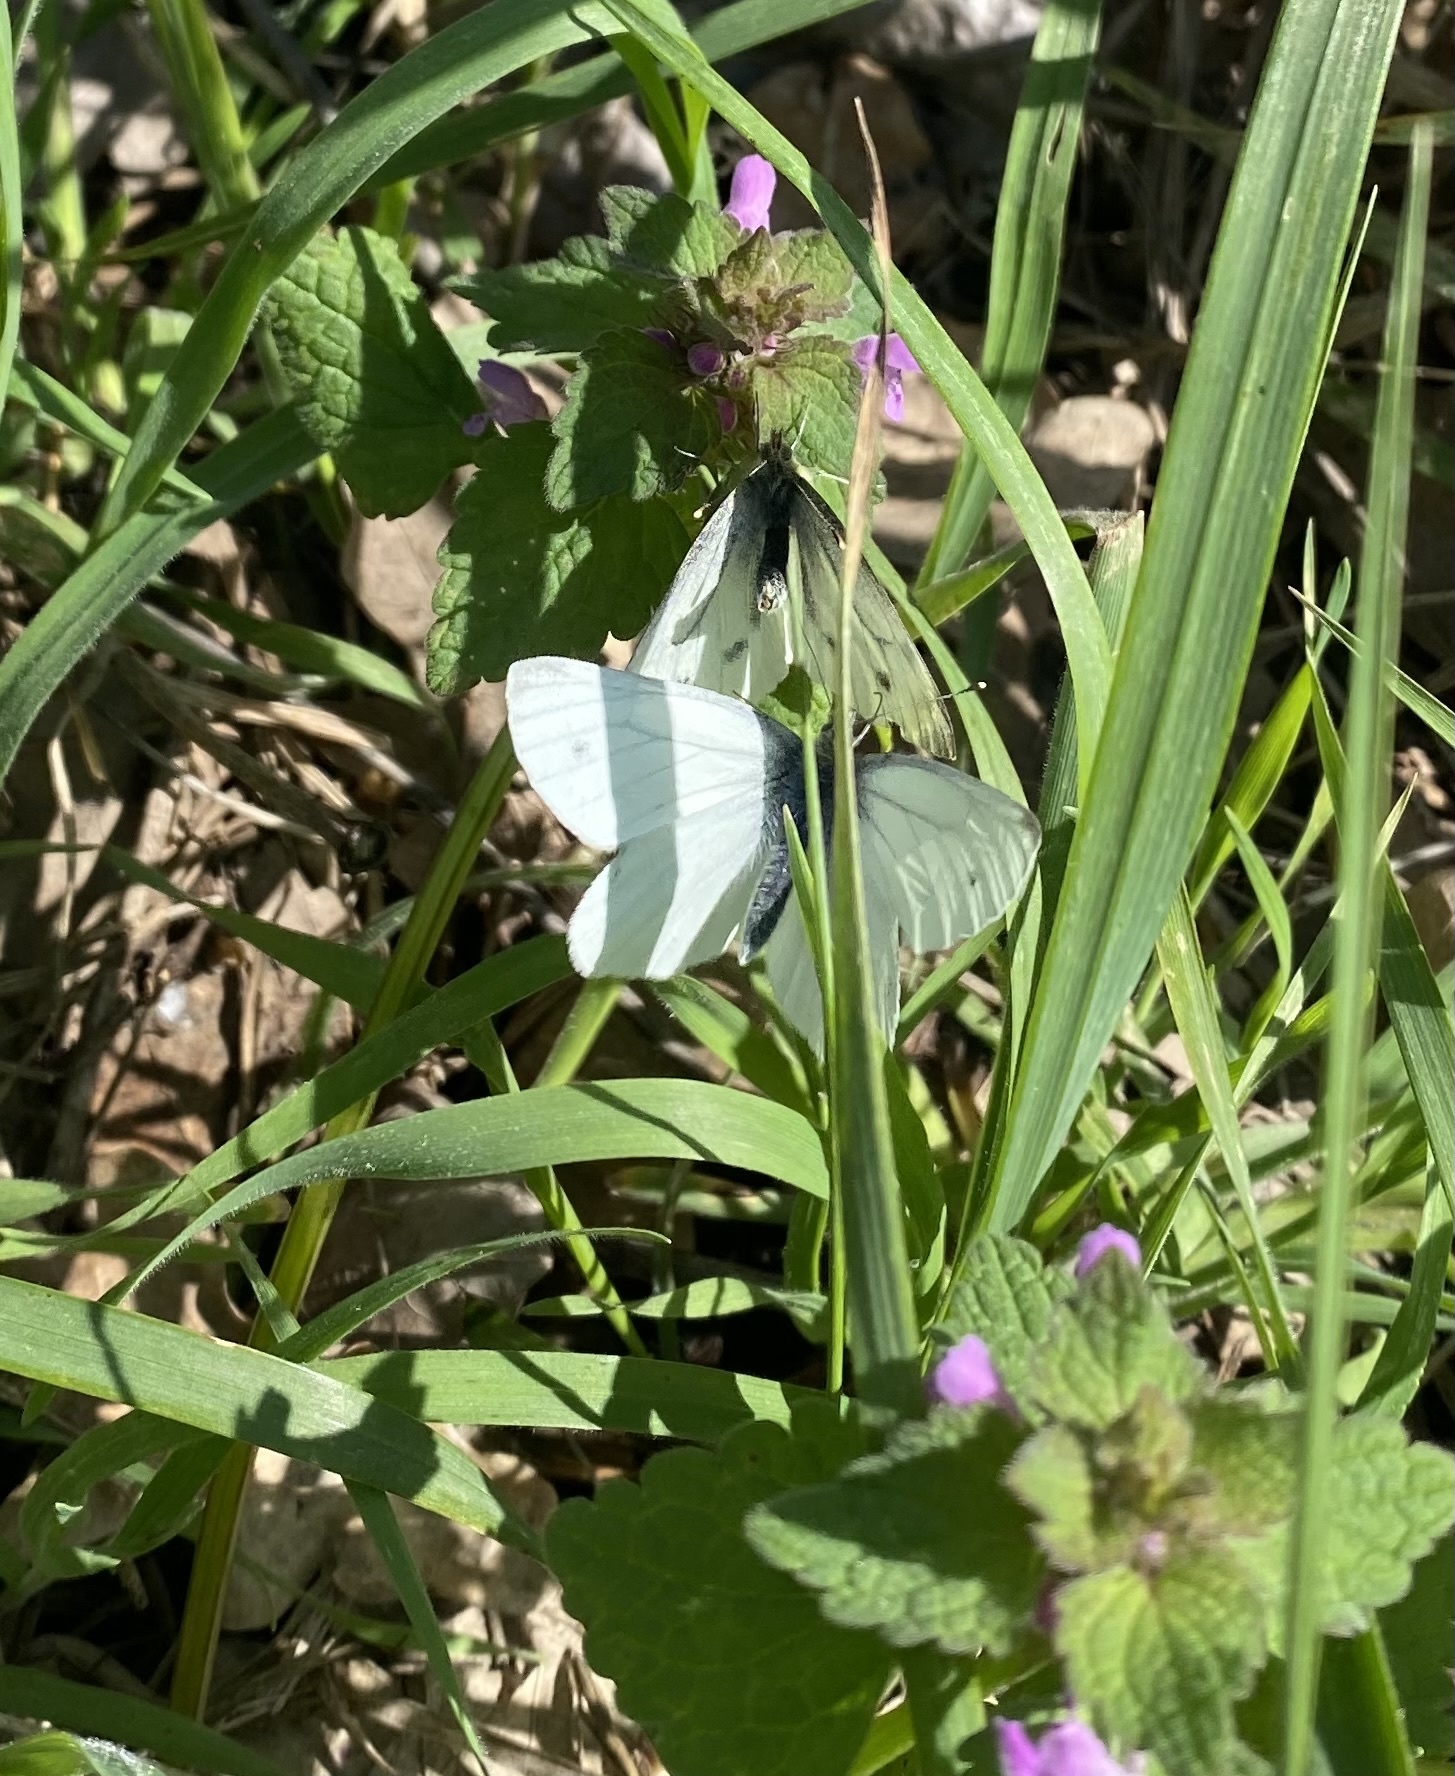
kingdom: Animalia
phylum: Arthropoda
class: Insecta
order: Lepidoptera
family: Pieridae
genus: Pieris
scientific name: Pieris napi
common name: Green-veined white
